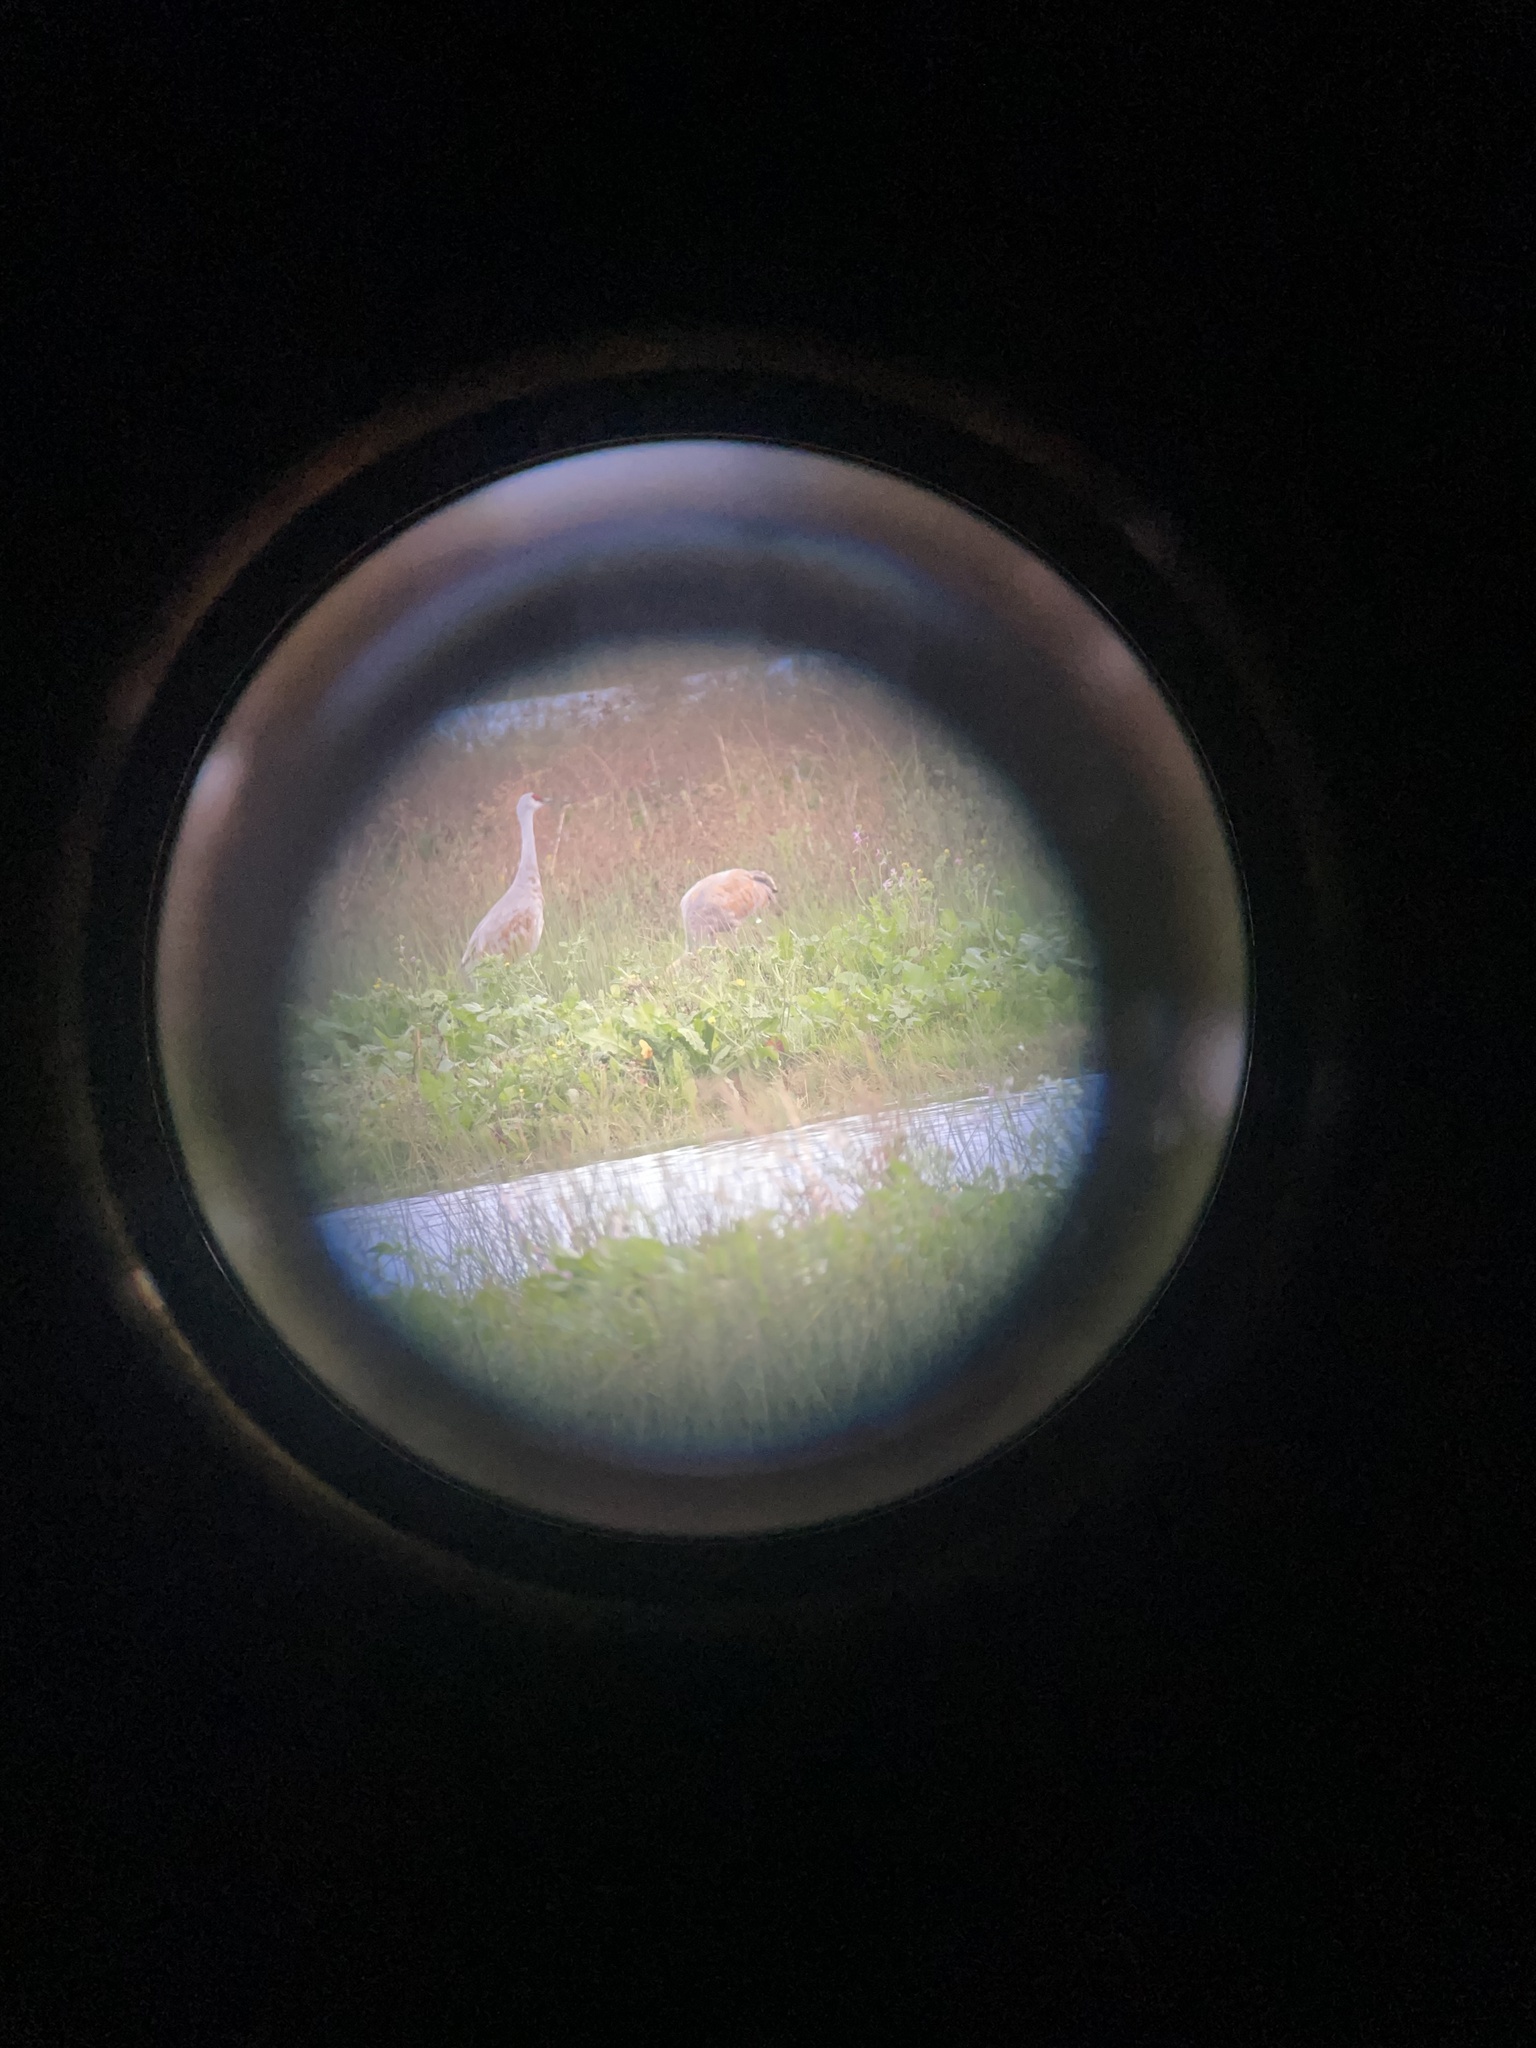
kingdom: Animalia
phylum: Chordata
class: Aves
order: Gruiformes
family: Gruidae
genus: Grus
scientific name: Grus canadensis
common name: Sandhill crane
